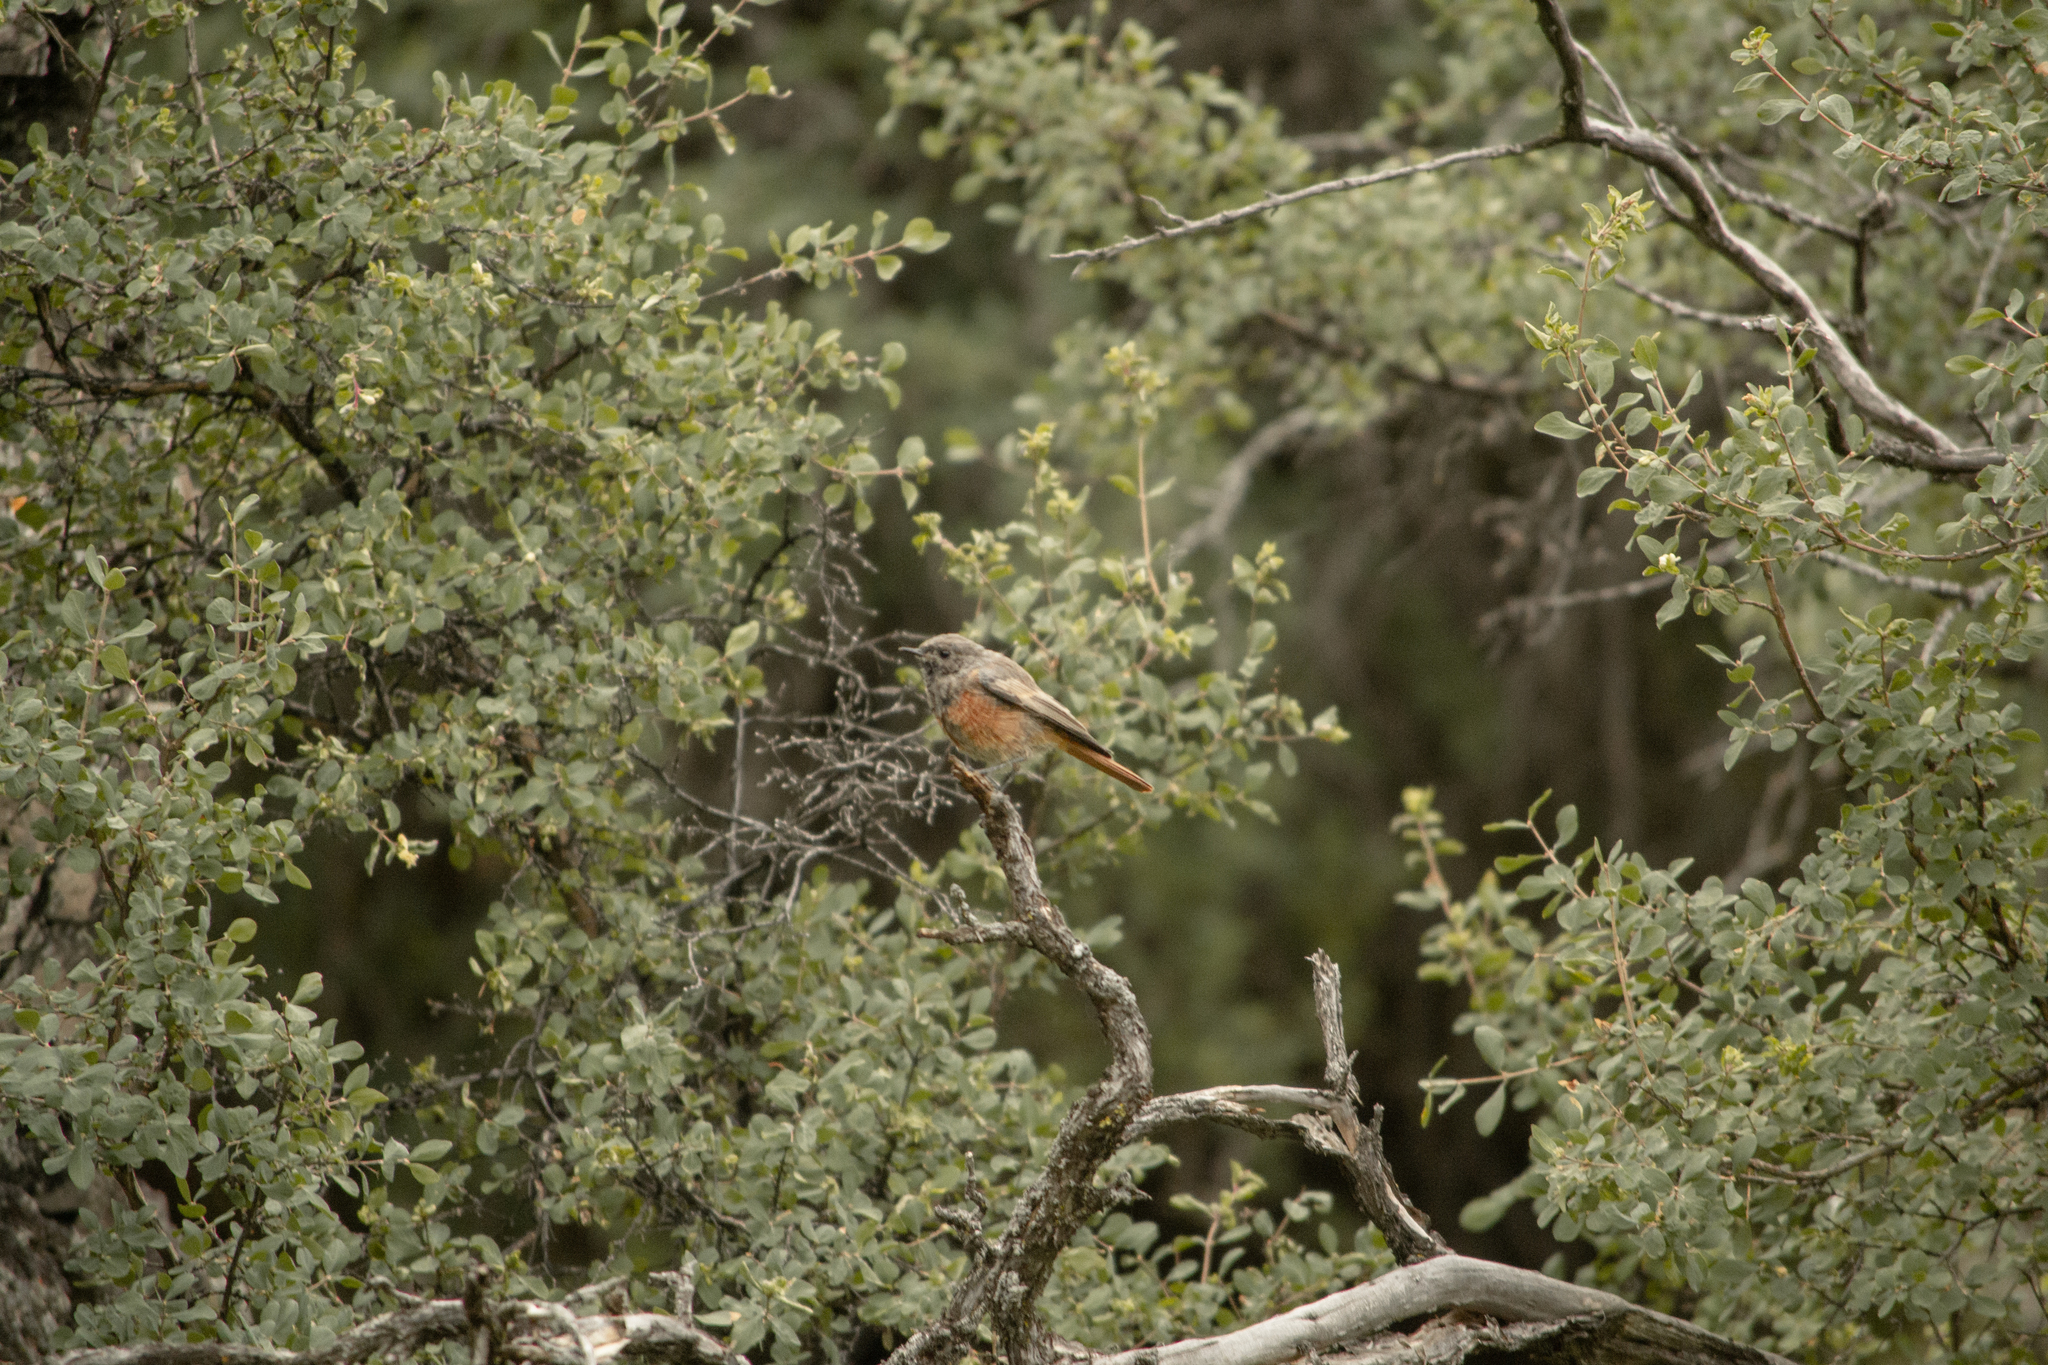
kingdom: Animalia
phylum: Chordata
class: Aves
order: Passeriformes
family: Muscicapidae
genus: Phoenicurus
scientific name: Phoenicurus ochruros
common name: Black redstart
